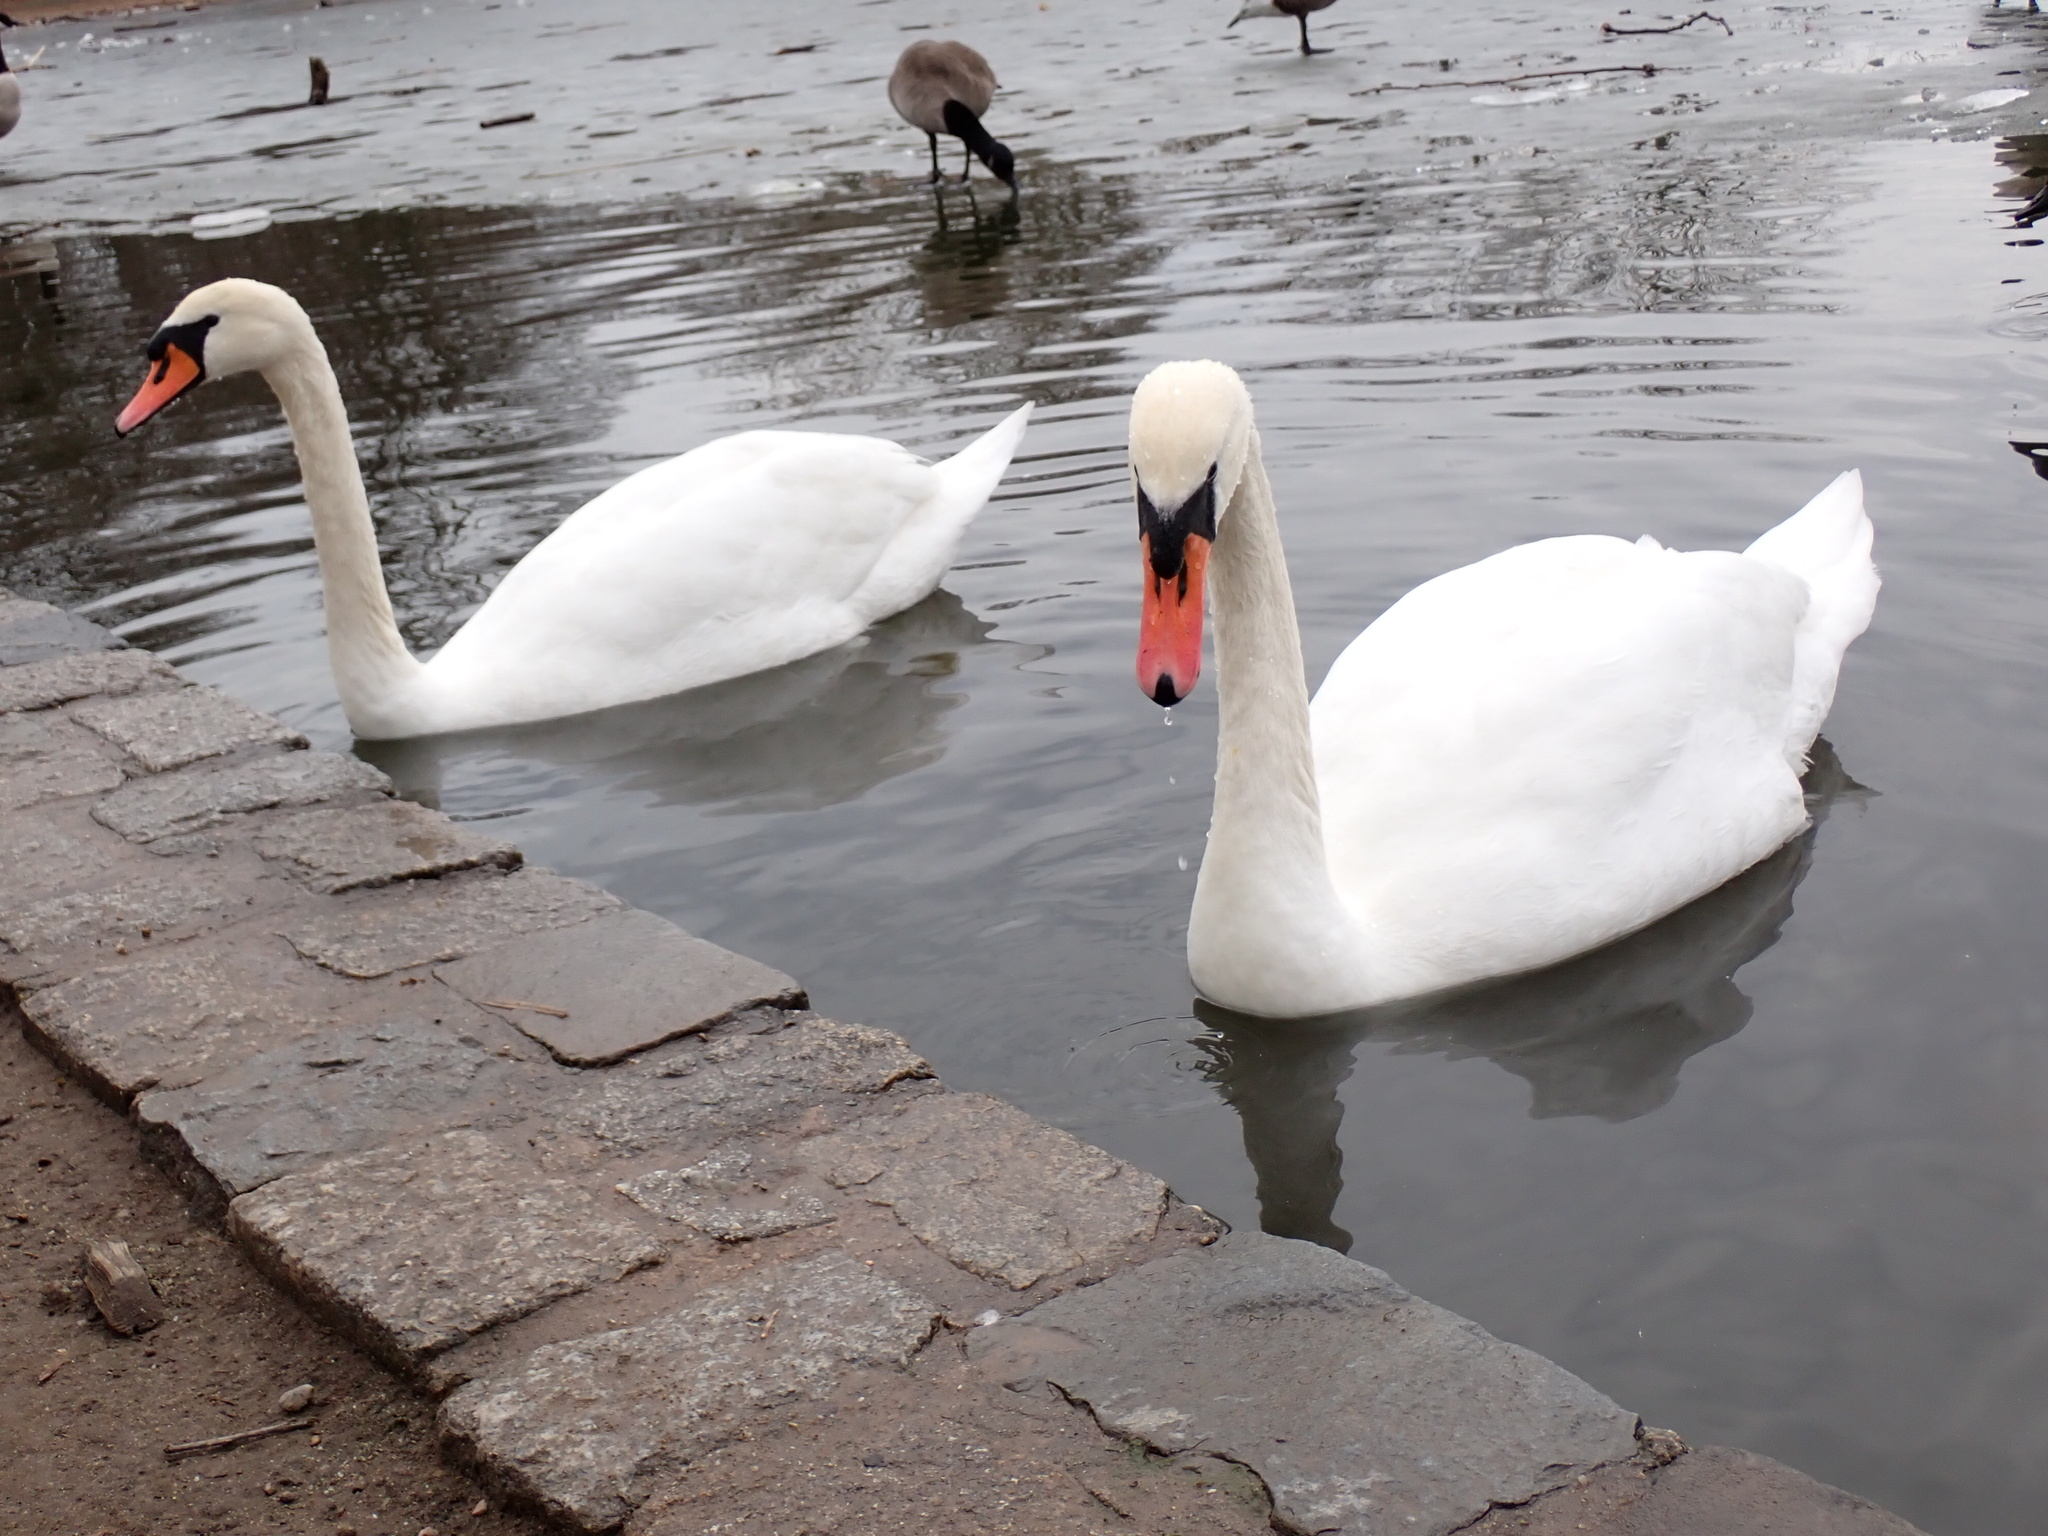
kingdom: Animalia
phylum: Chordata
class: Aves
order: Anseriformes
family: Anatidae
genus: Cygnus
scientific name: Cygnus olor
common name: Mute swan
